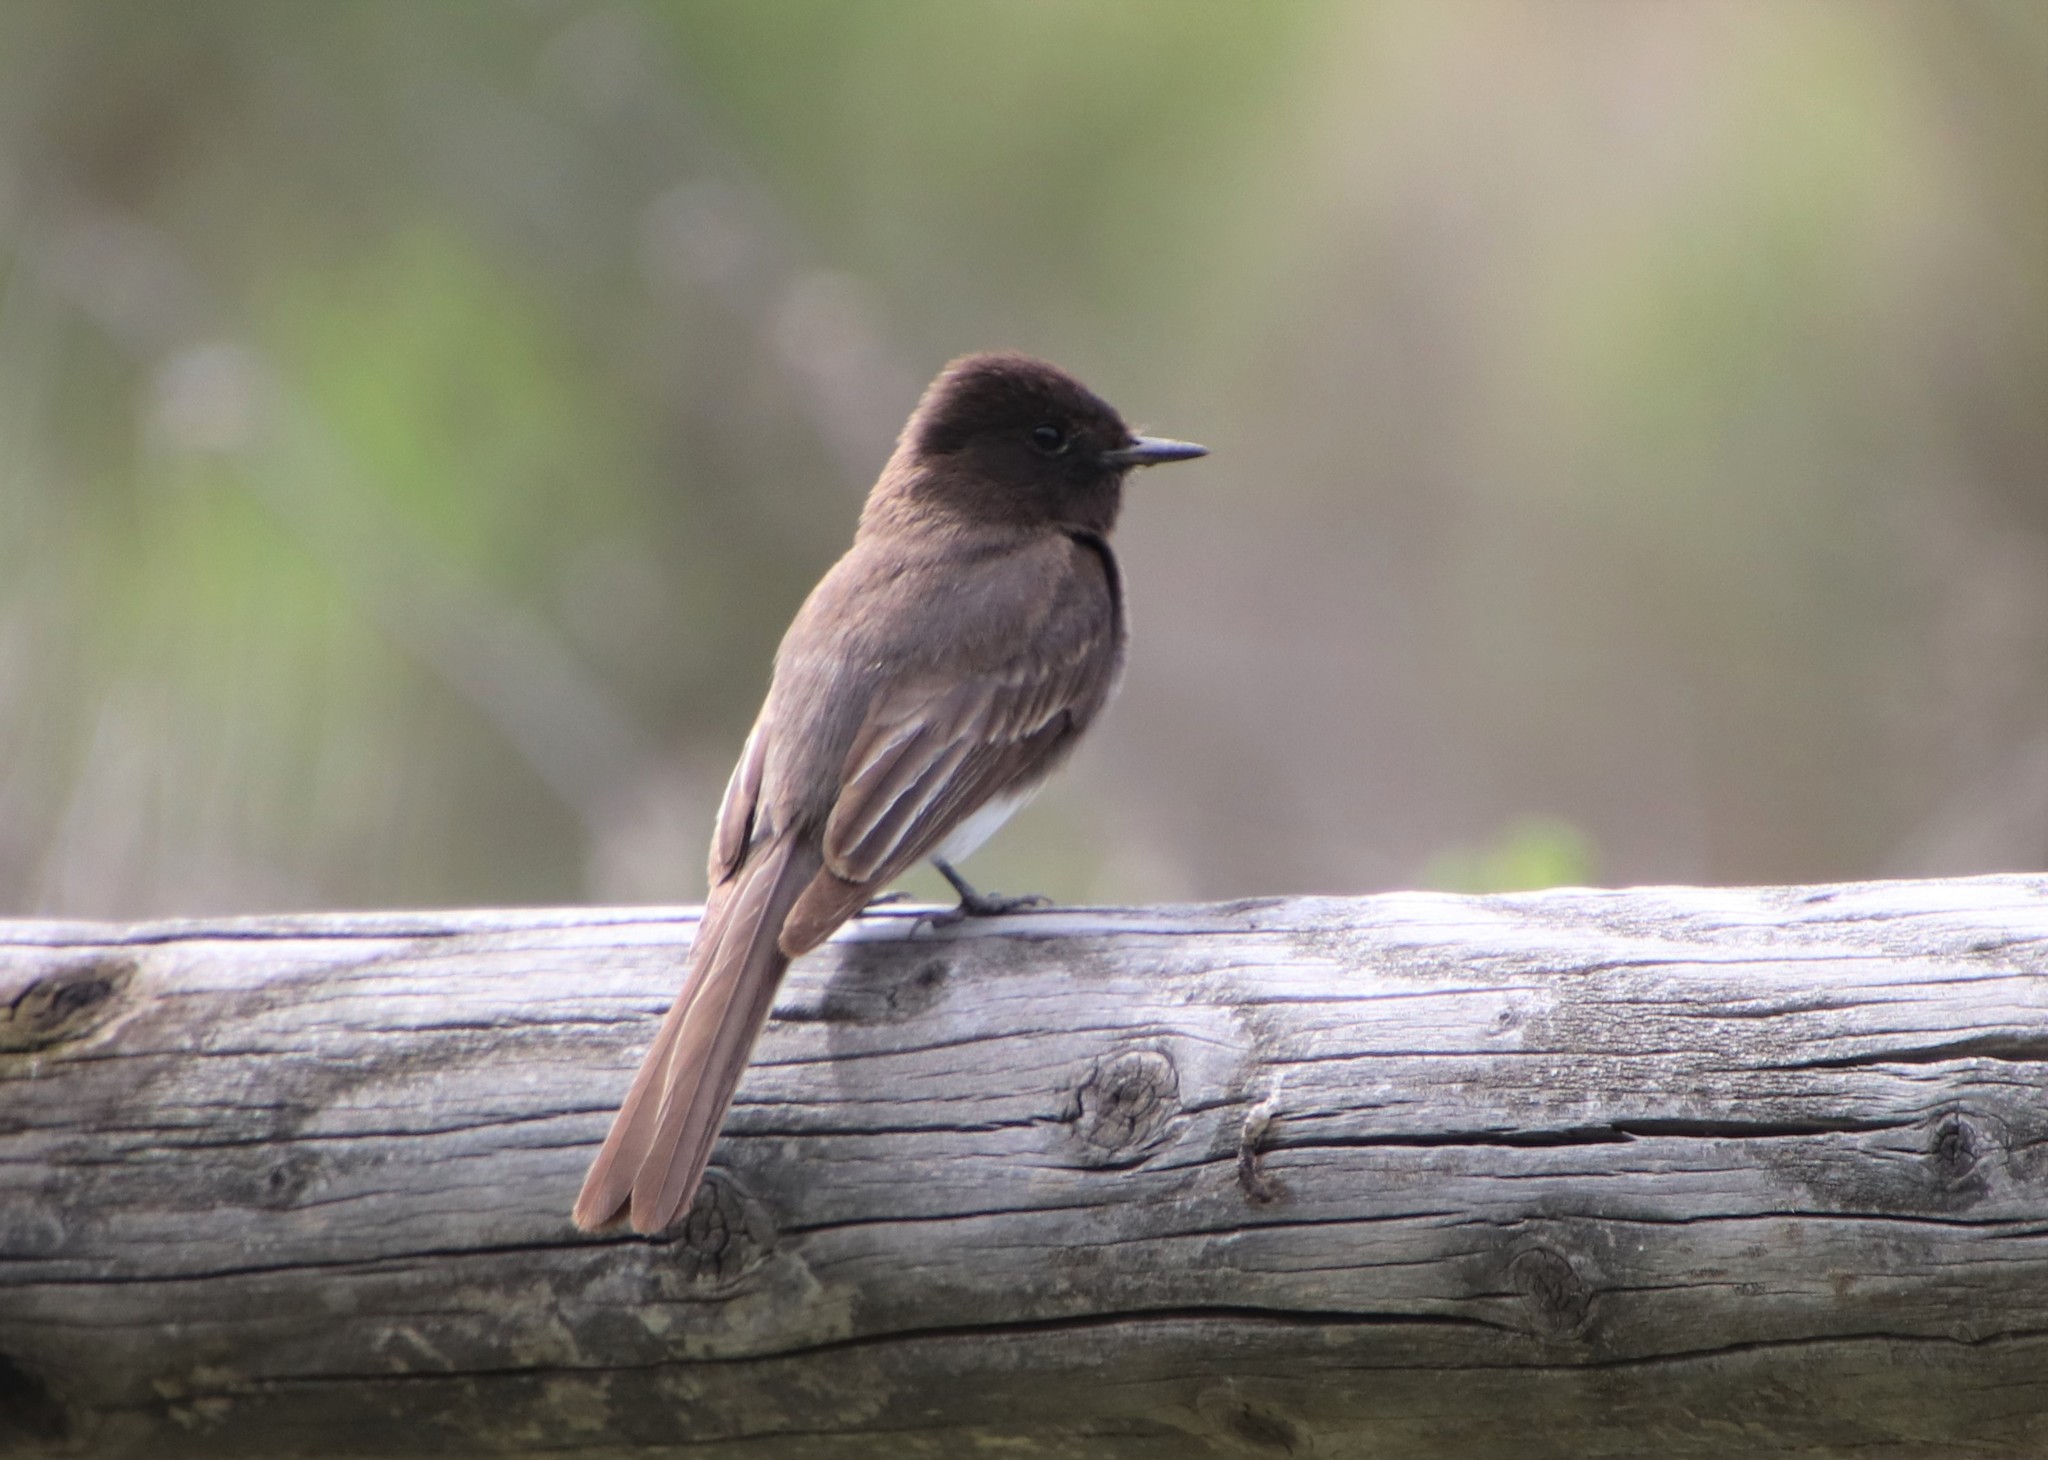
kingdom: Animalia
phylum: Chordata
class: Aves
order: Passeriformes
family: Tyrannidae
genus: Sayornis
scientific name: Sayornis nigricans
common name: Black phoebe
